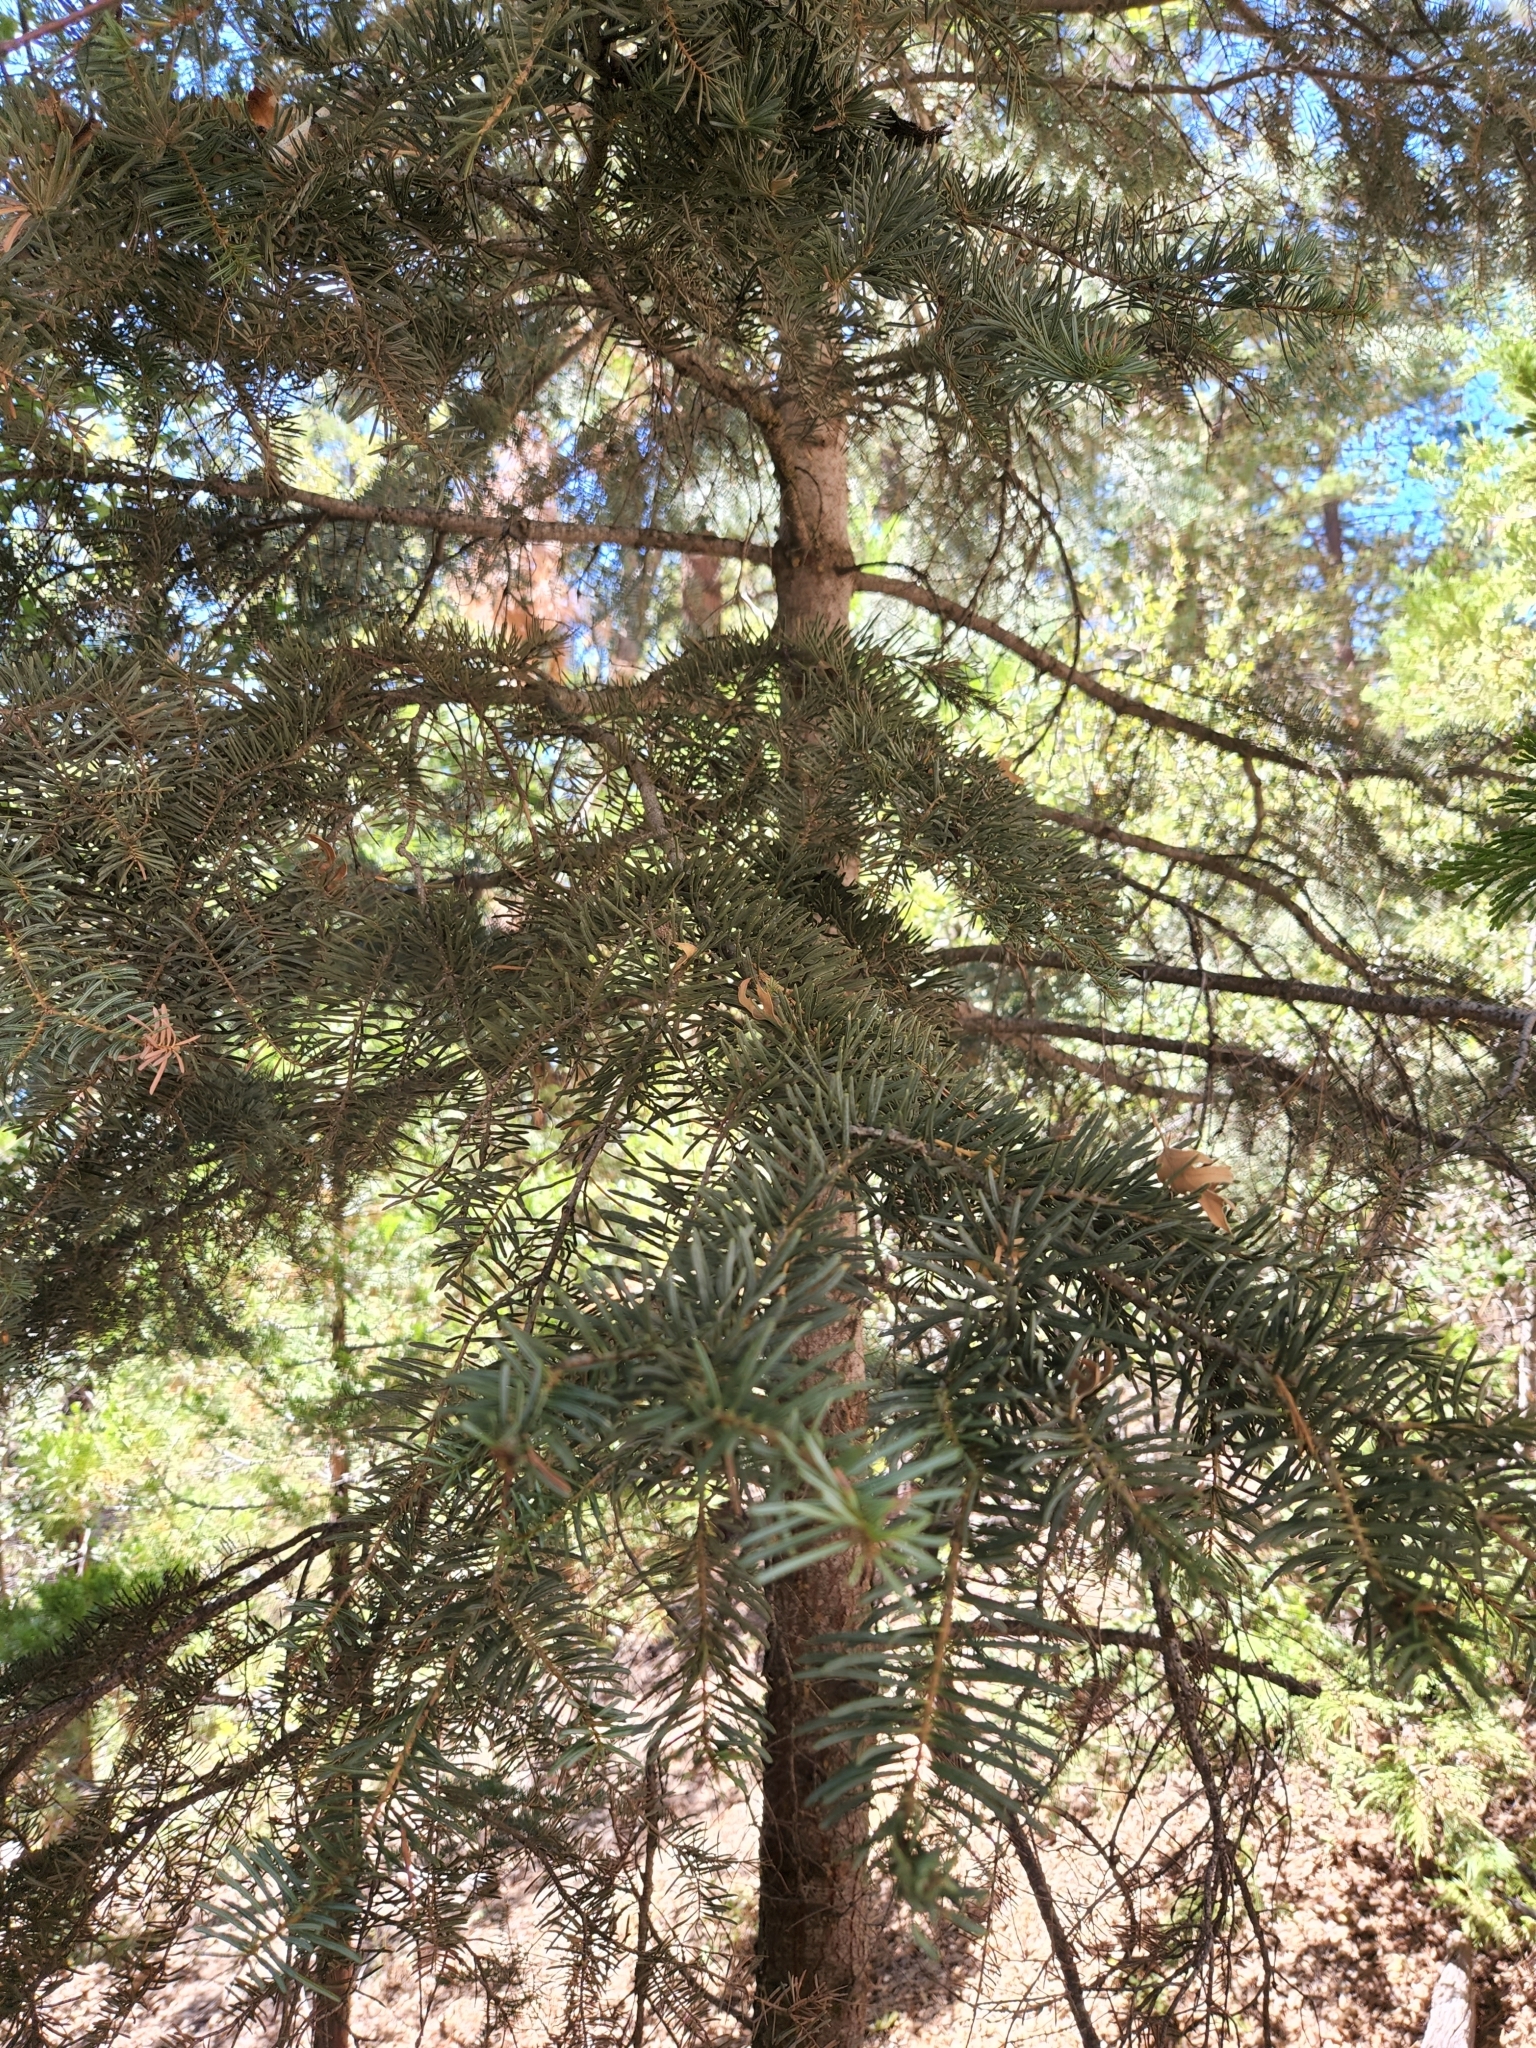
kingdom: Plantae
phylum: Tracheophyta
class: Pinopsida
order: Pinales
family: Pinaceae
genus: Abies
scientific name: Abies concolor
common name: Colorado fir
